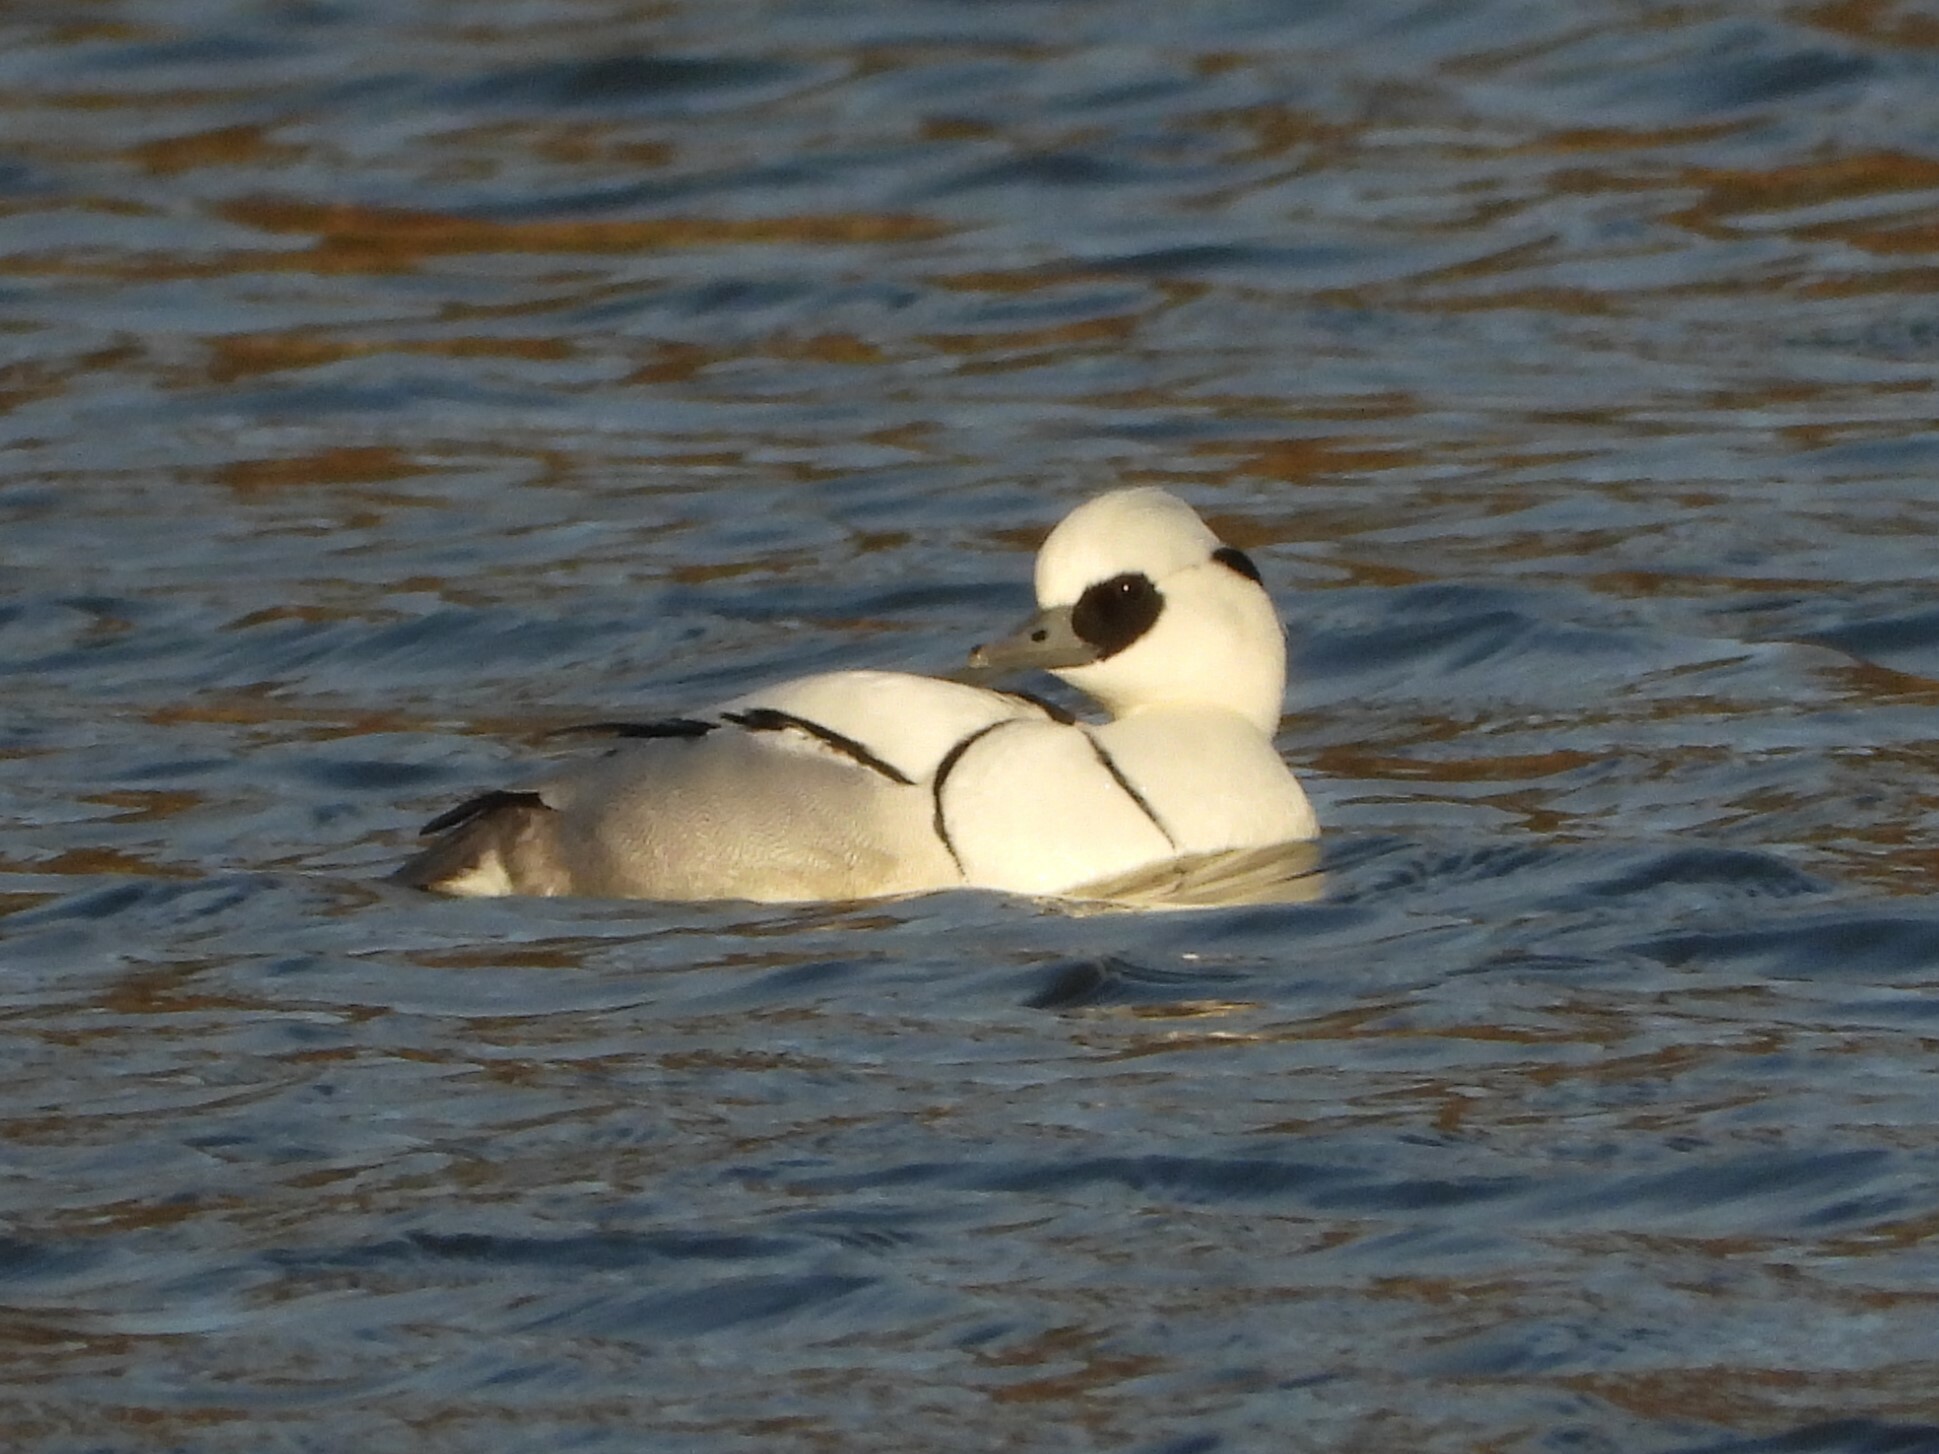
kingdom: Animalia
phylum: Chordata
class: Aves
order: Anseriformes
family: Anatidae
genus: Mergellus
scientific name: Mergellus albellus
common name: Smew
